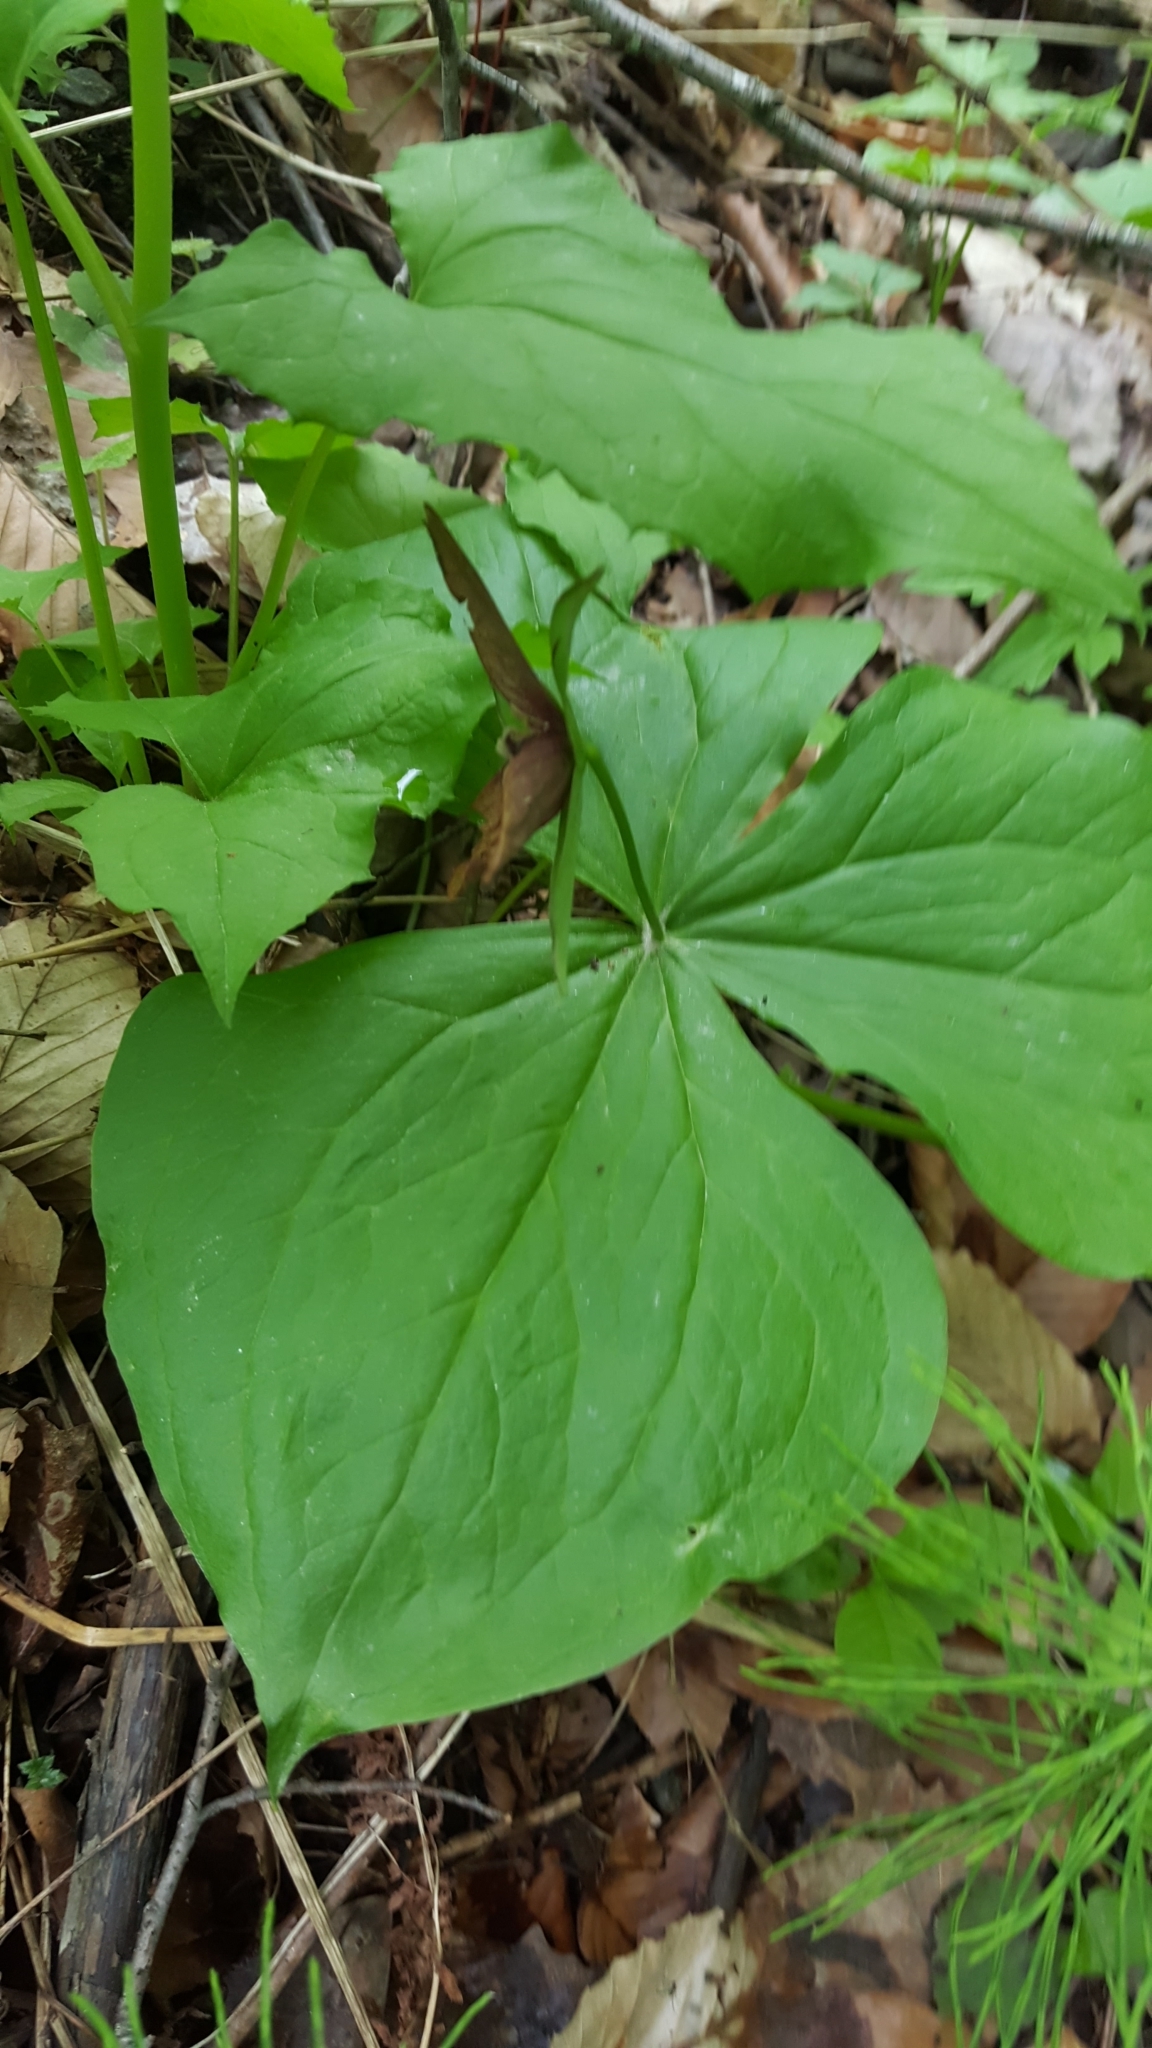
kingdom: Plantae
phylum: Tracheophyta
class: Liliopsida
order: Liliales
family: Melanthiaceae
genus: Trillium
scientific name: Trillium erectum
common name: Purple trillium
